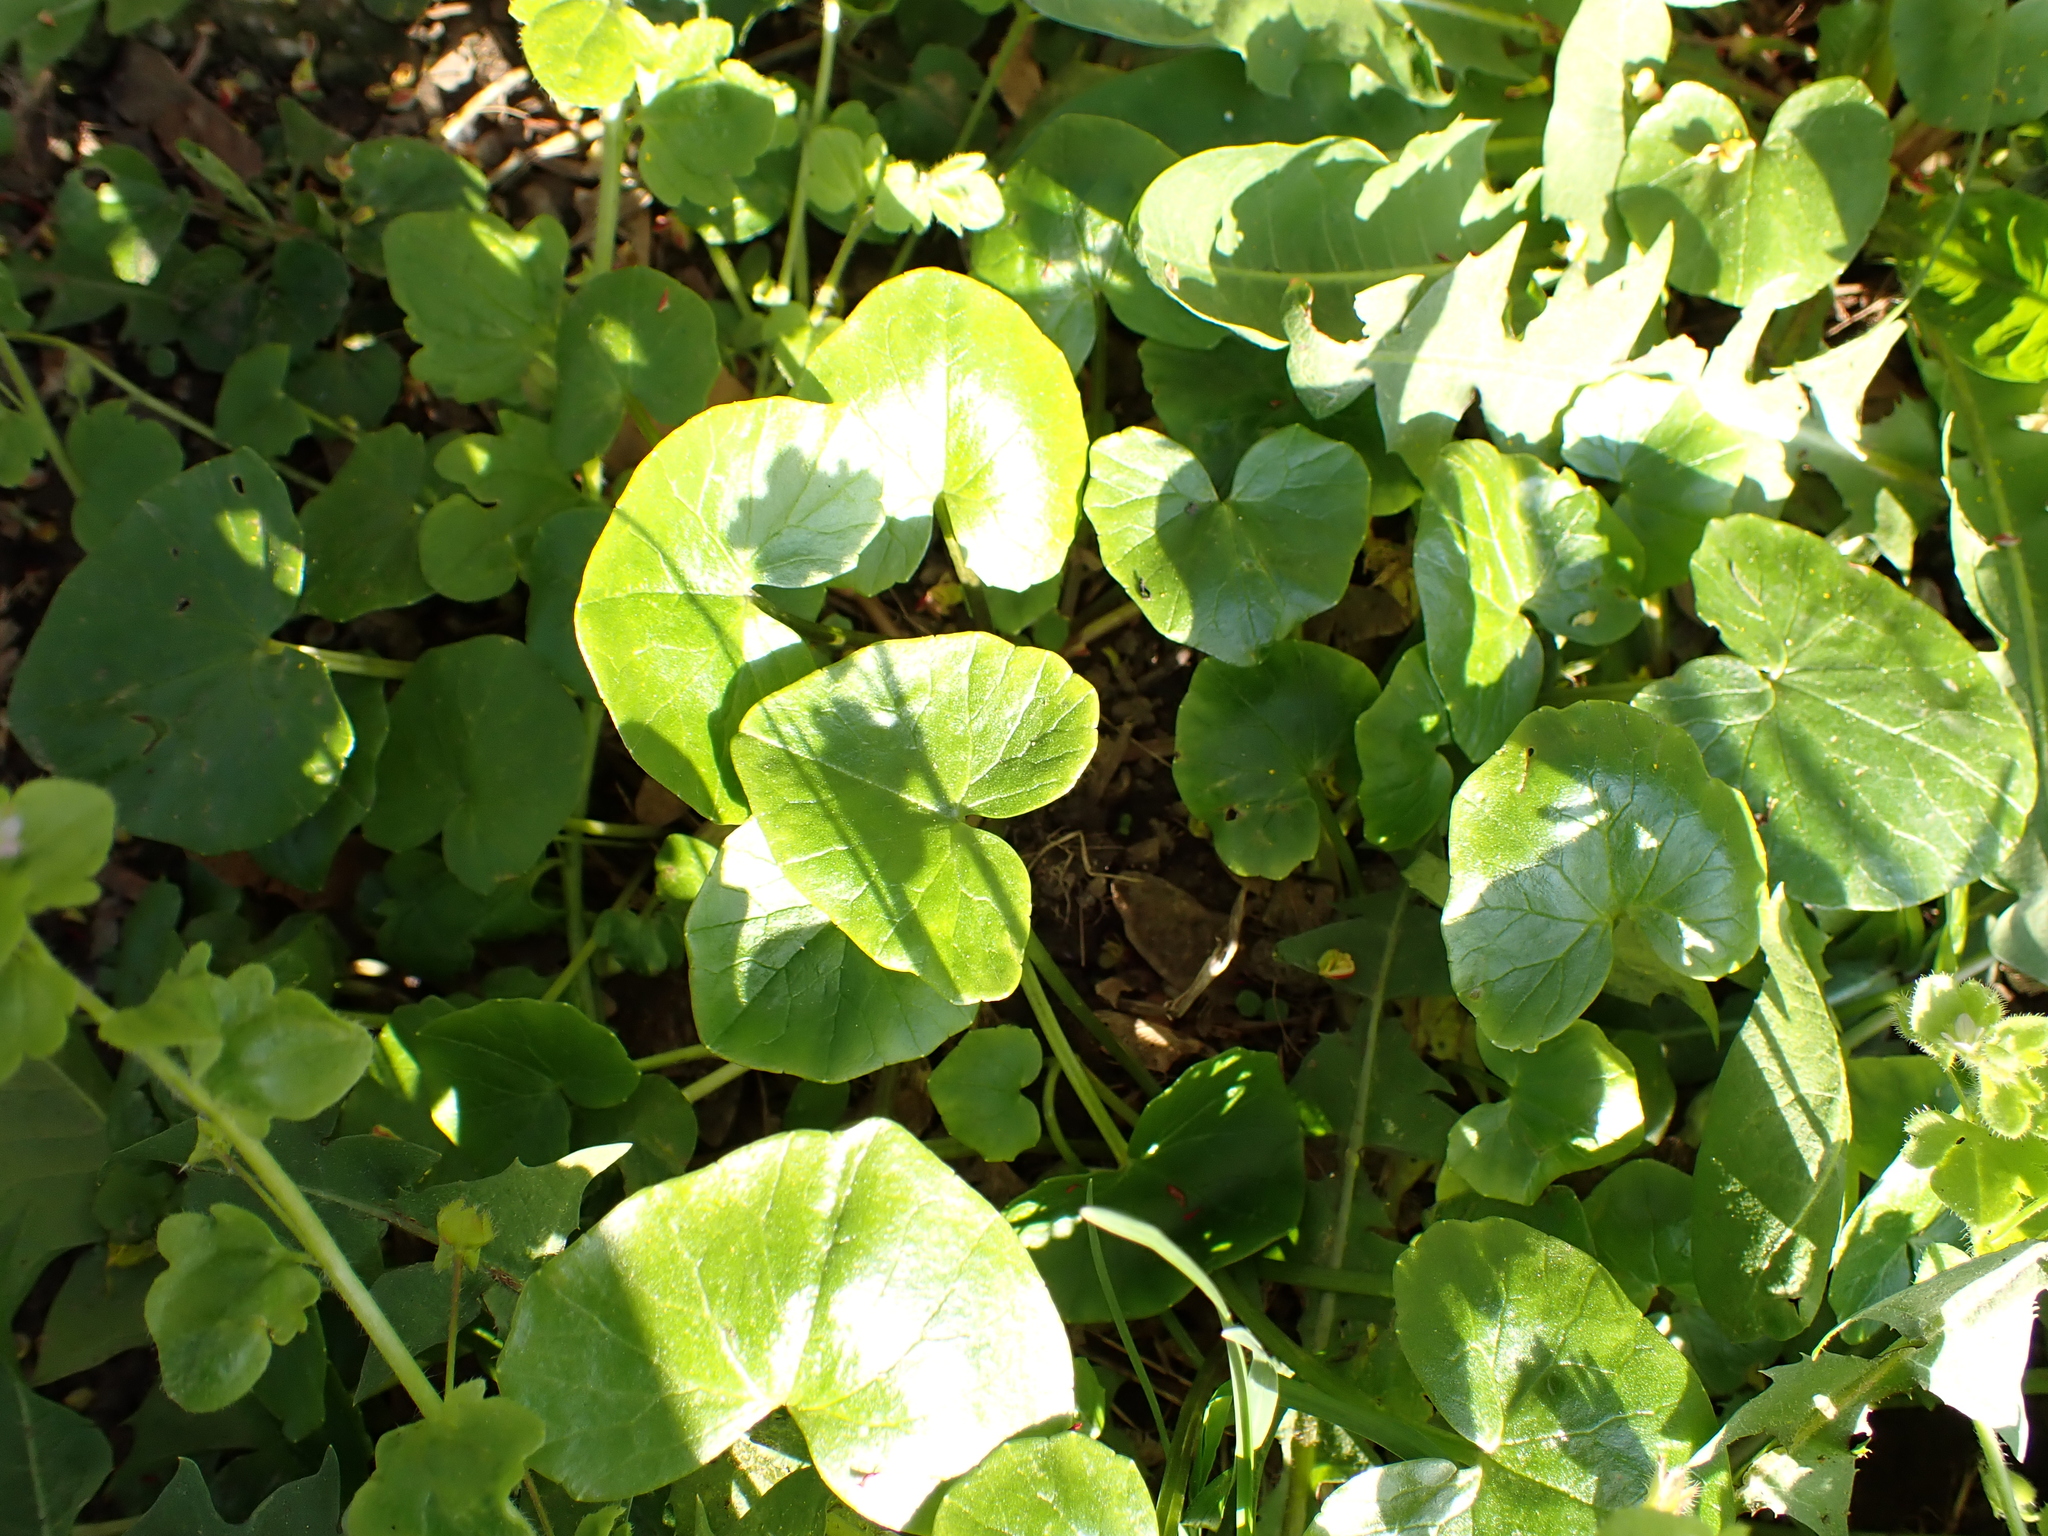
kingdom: Plantae
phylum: Tracheophyta
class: Magnoliopsida
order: Ranunculales
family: Ranunculaceae
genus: Ficaria
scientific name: Ficaria verna
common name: Lesser celandine
